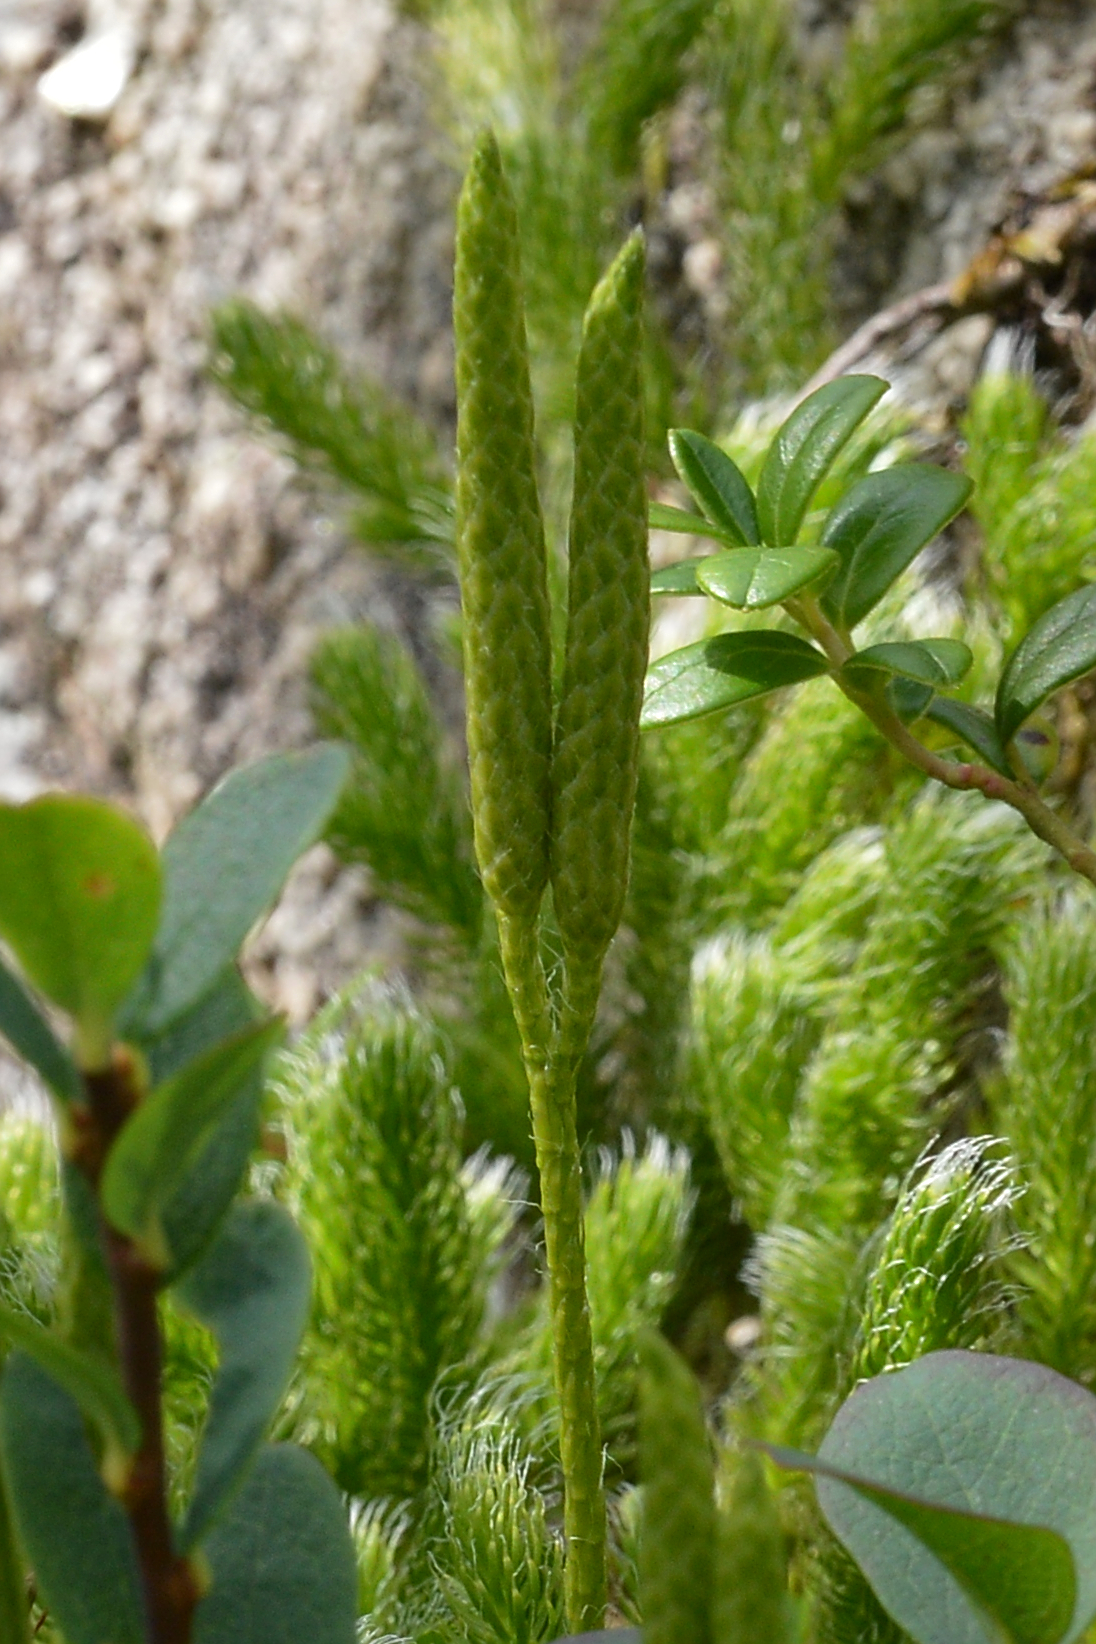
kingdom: Plantae
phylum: Tracheophyta
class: Lycopodiopsida
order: Lycopodiales
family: Lycopodiaceae
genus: Lycopodium
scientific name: Lycopodium clavatum
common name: Stag's-horn clubmoss
